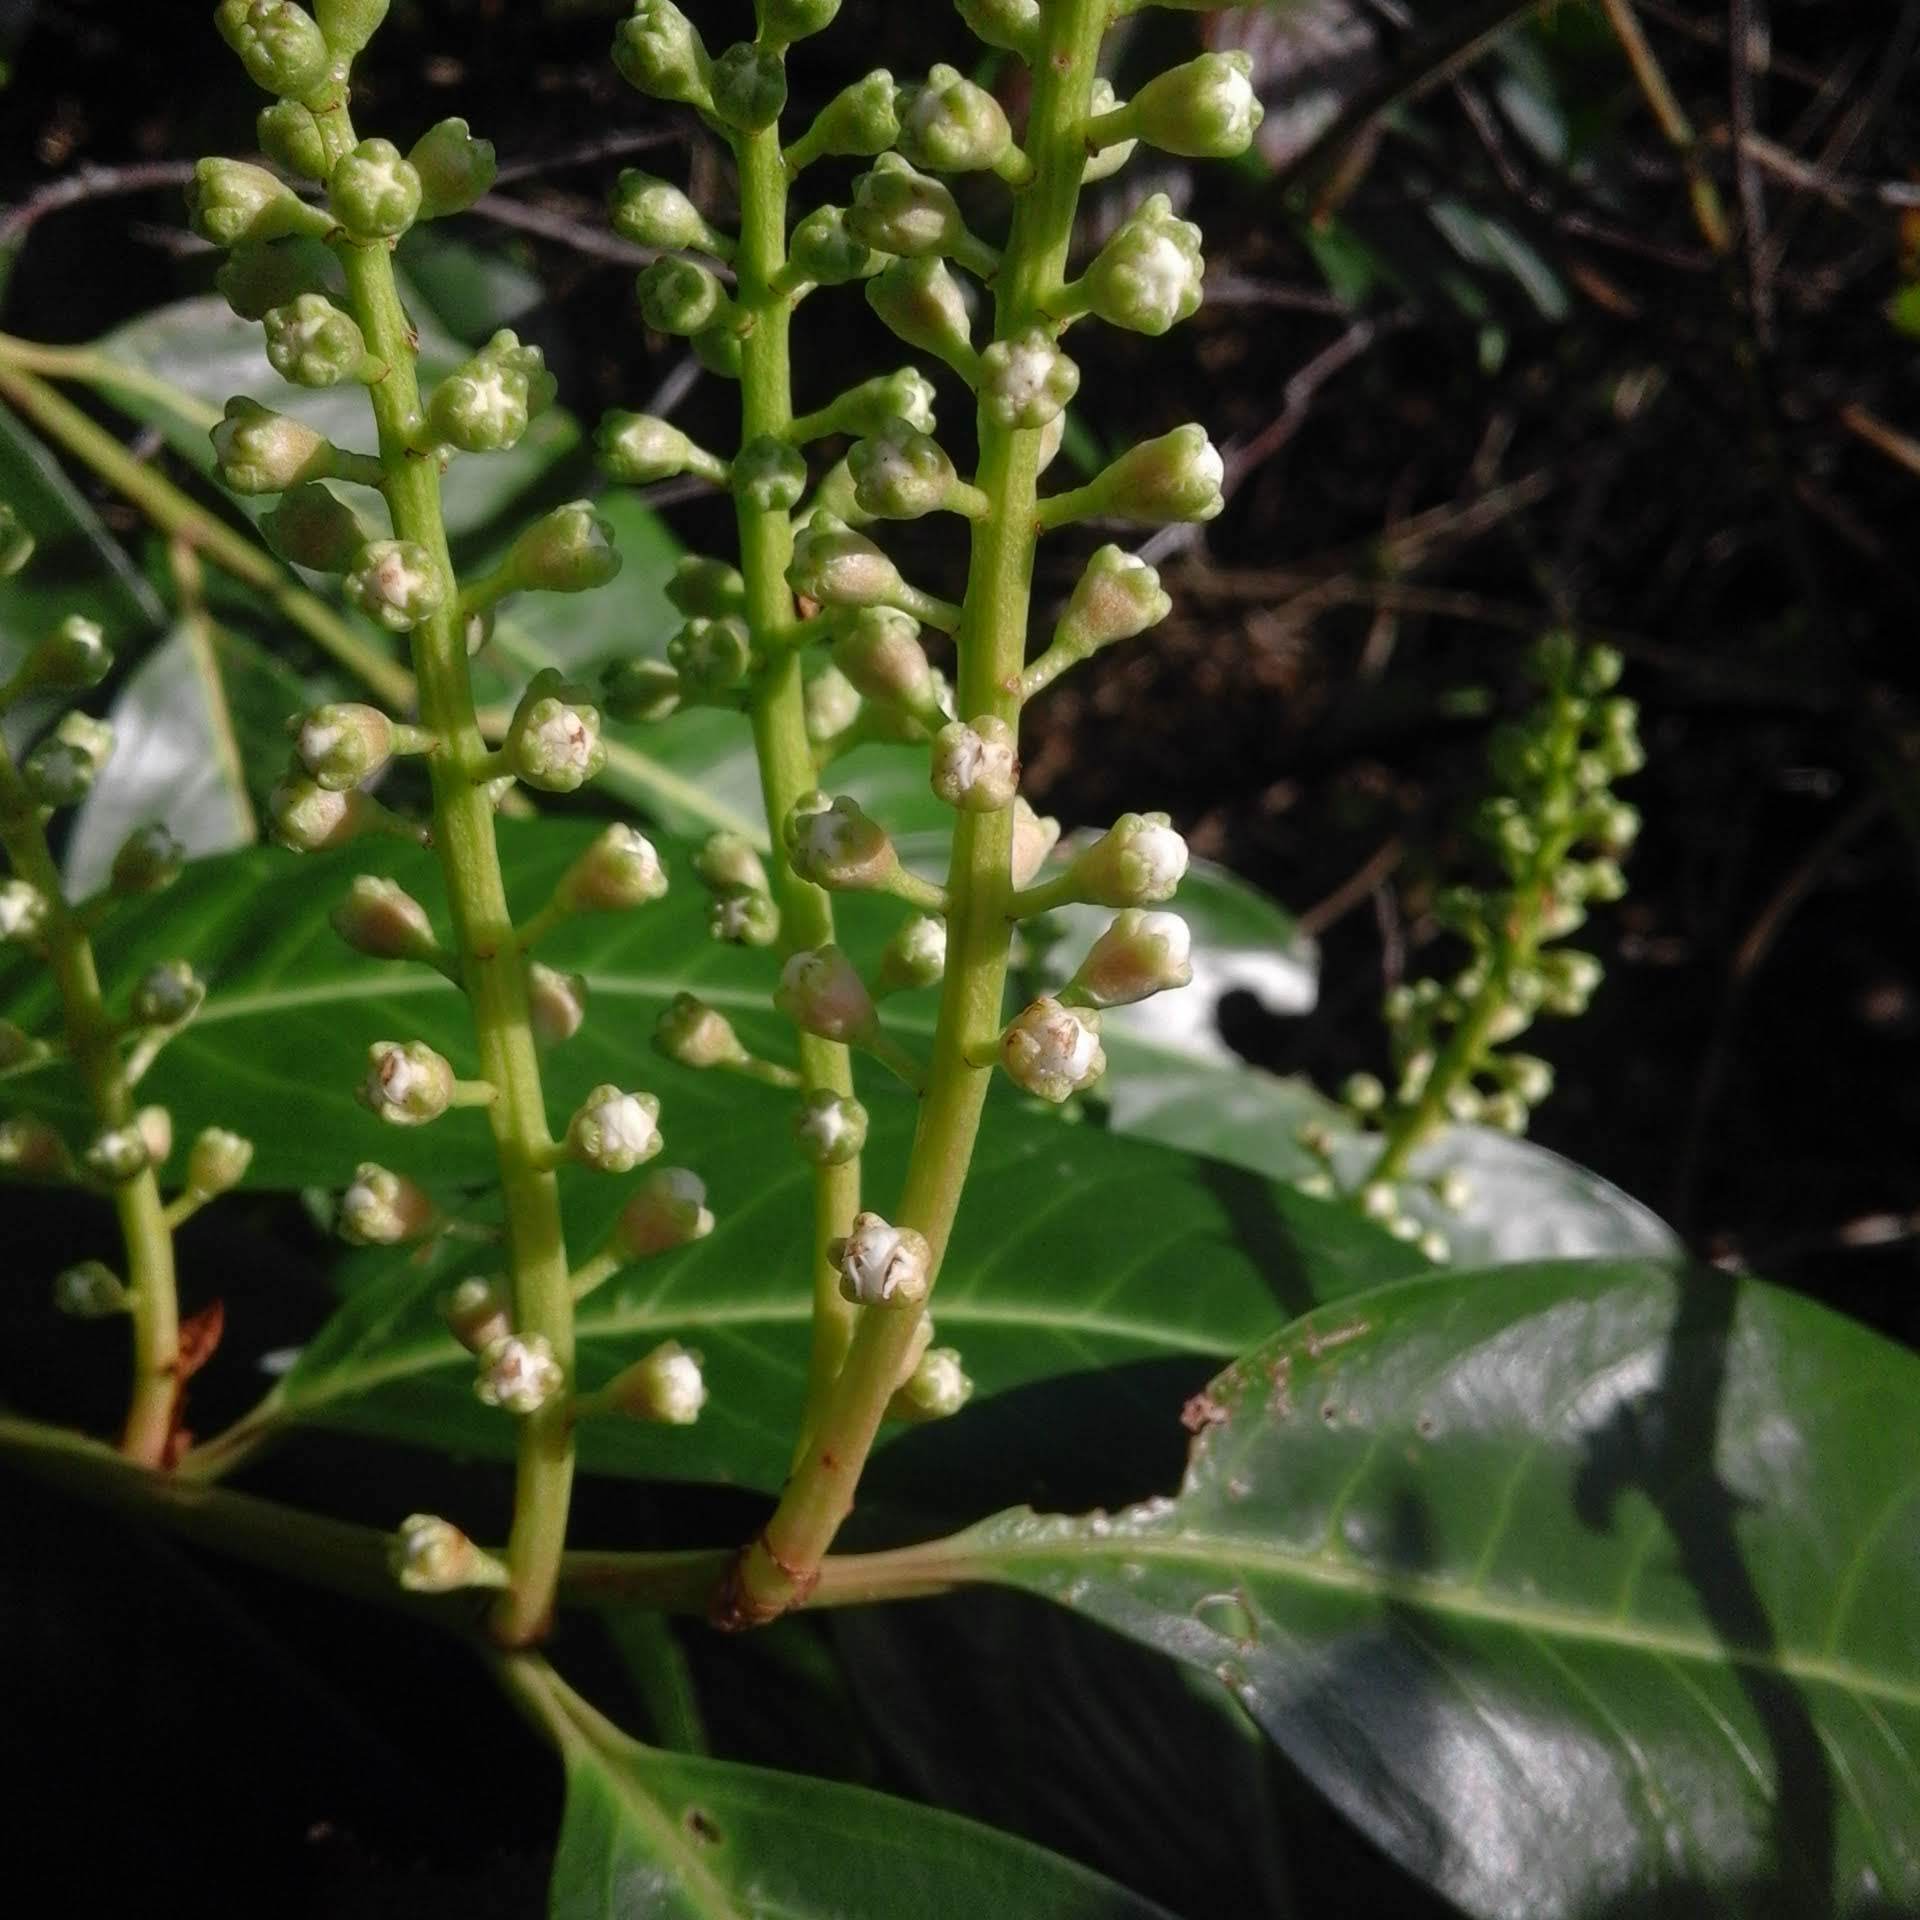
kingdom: Plantae
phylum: Tracheophyta
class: Magnoliopsida
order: Rosales
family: Rosaceae
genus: Prunus
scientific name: Prunus laurocerasus
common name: Cherry laurel
